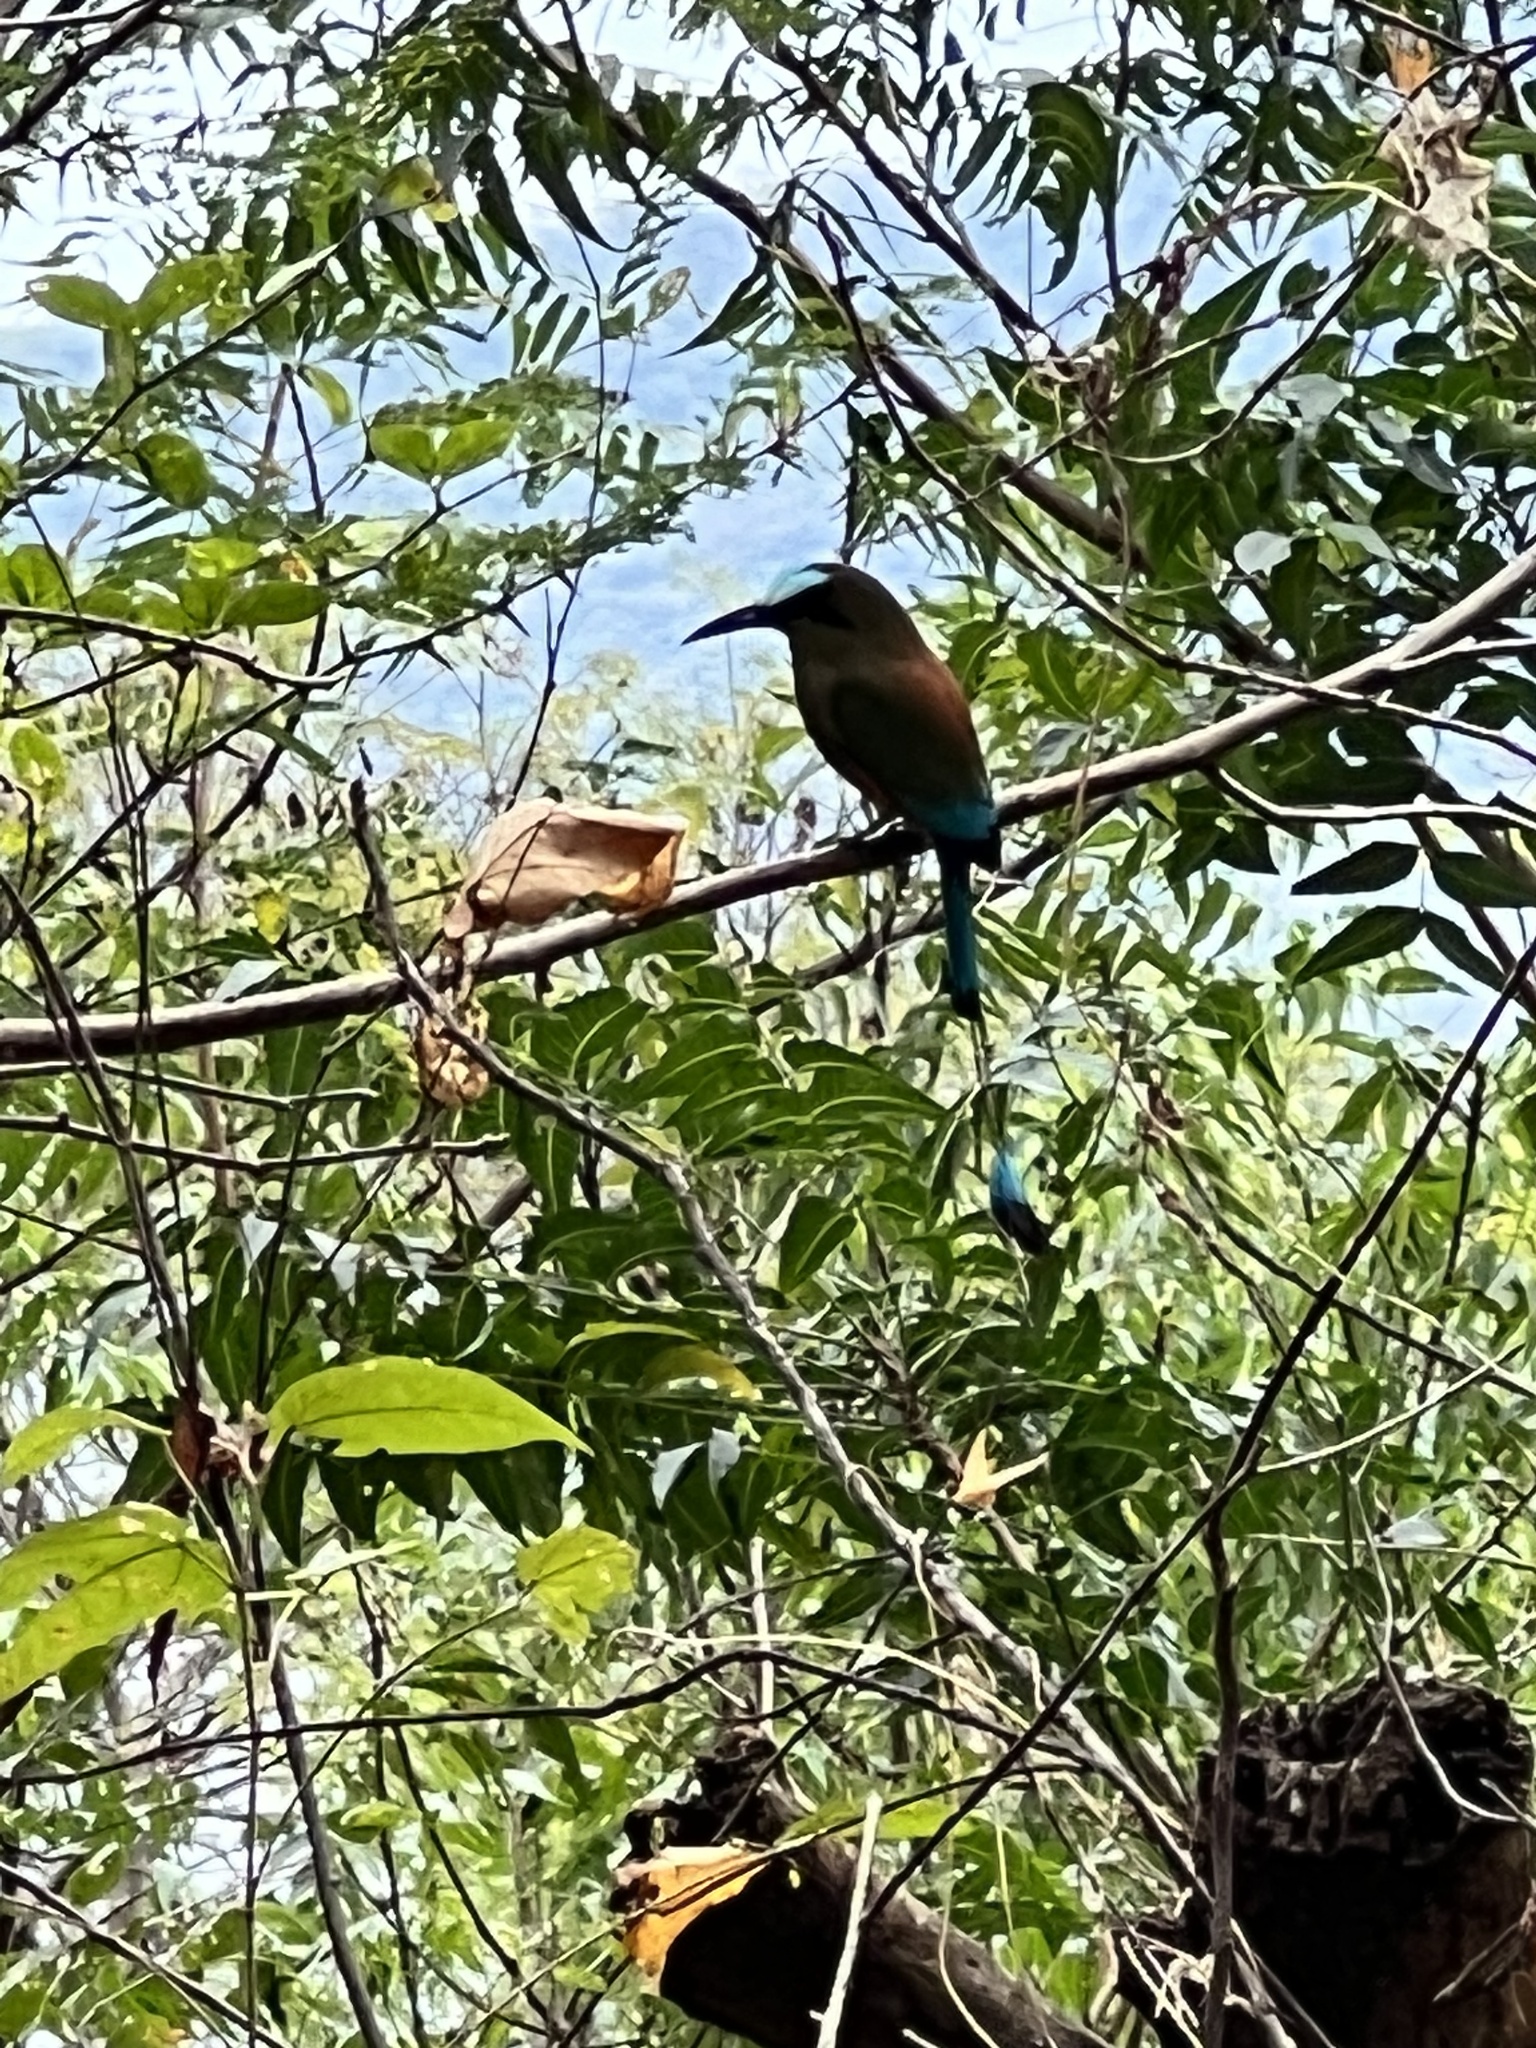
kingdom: Animalia
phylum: Chordata
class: Aves
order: Coraciiformes
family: Momotidae
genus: Eumomota
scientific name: Eumomota superciliosa
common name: Turquoise-browed motmot
